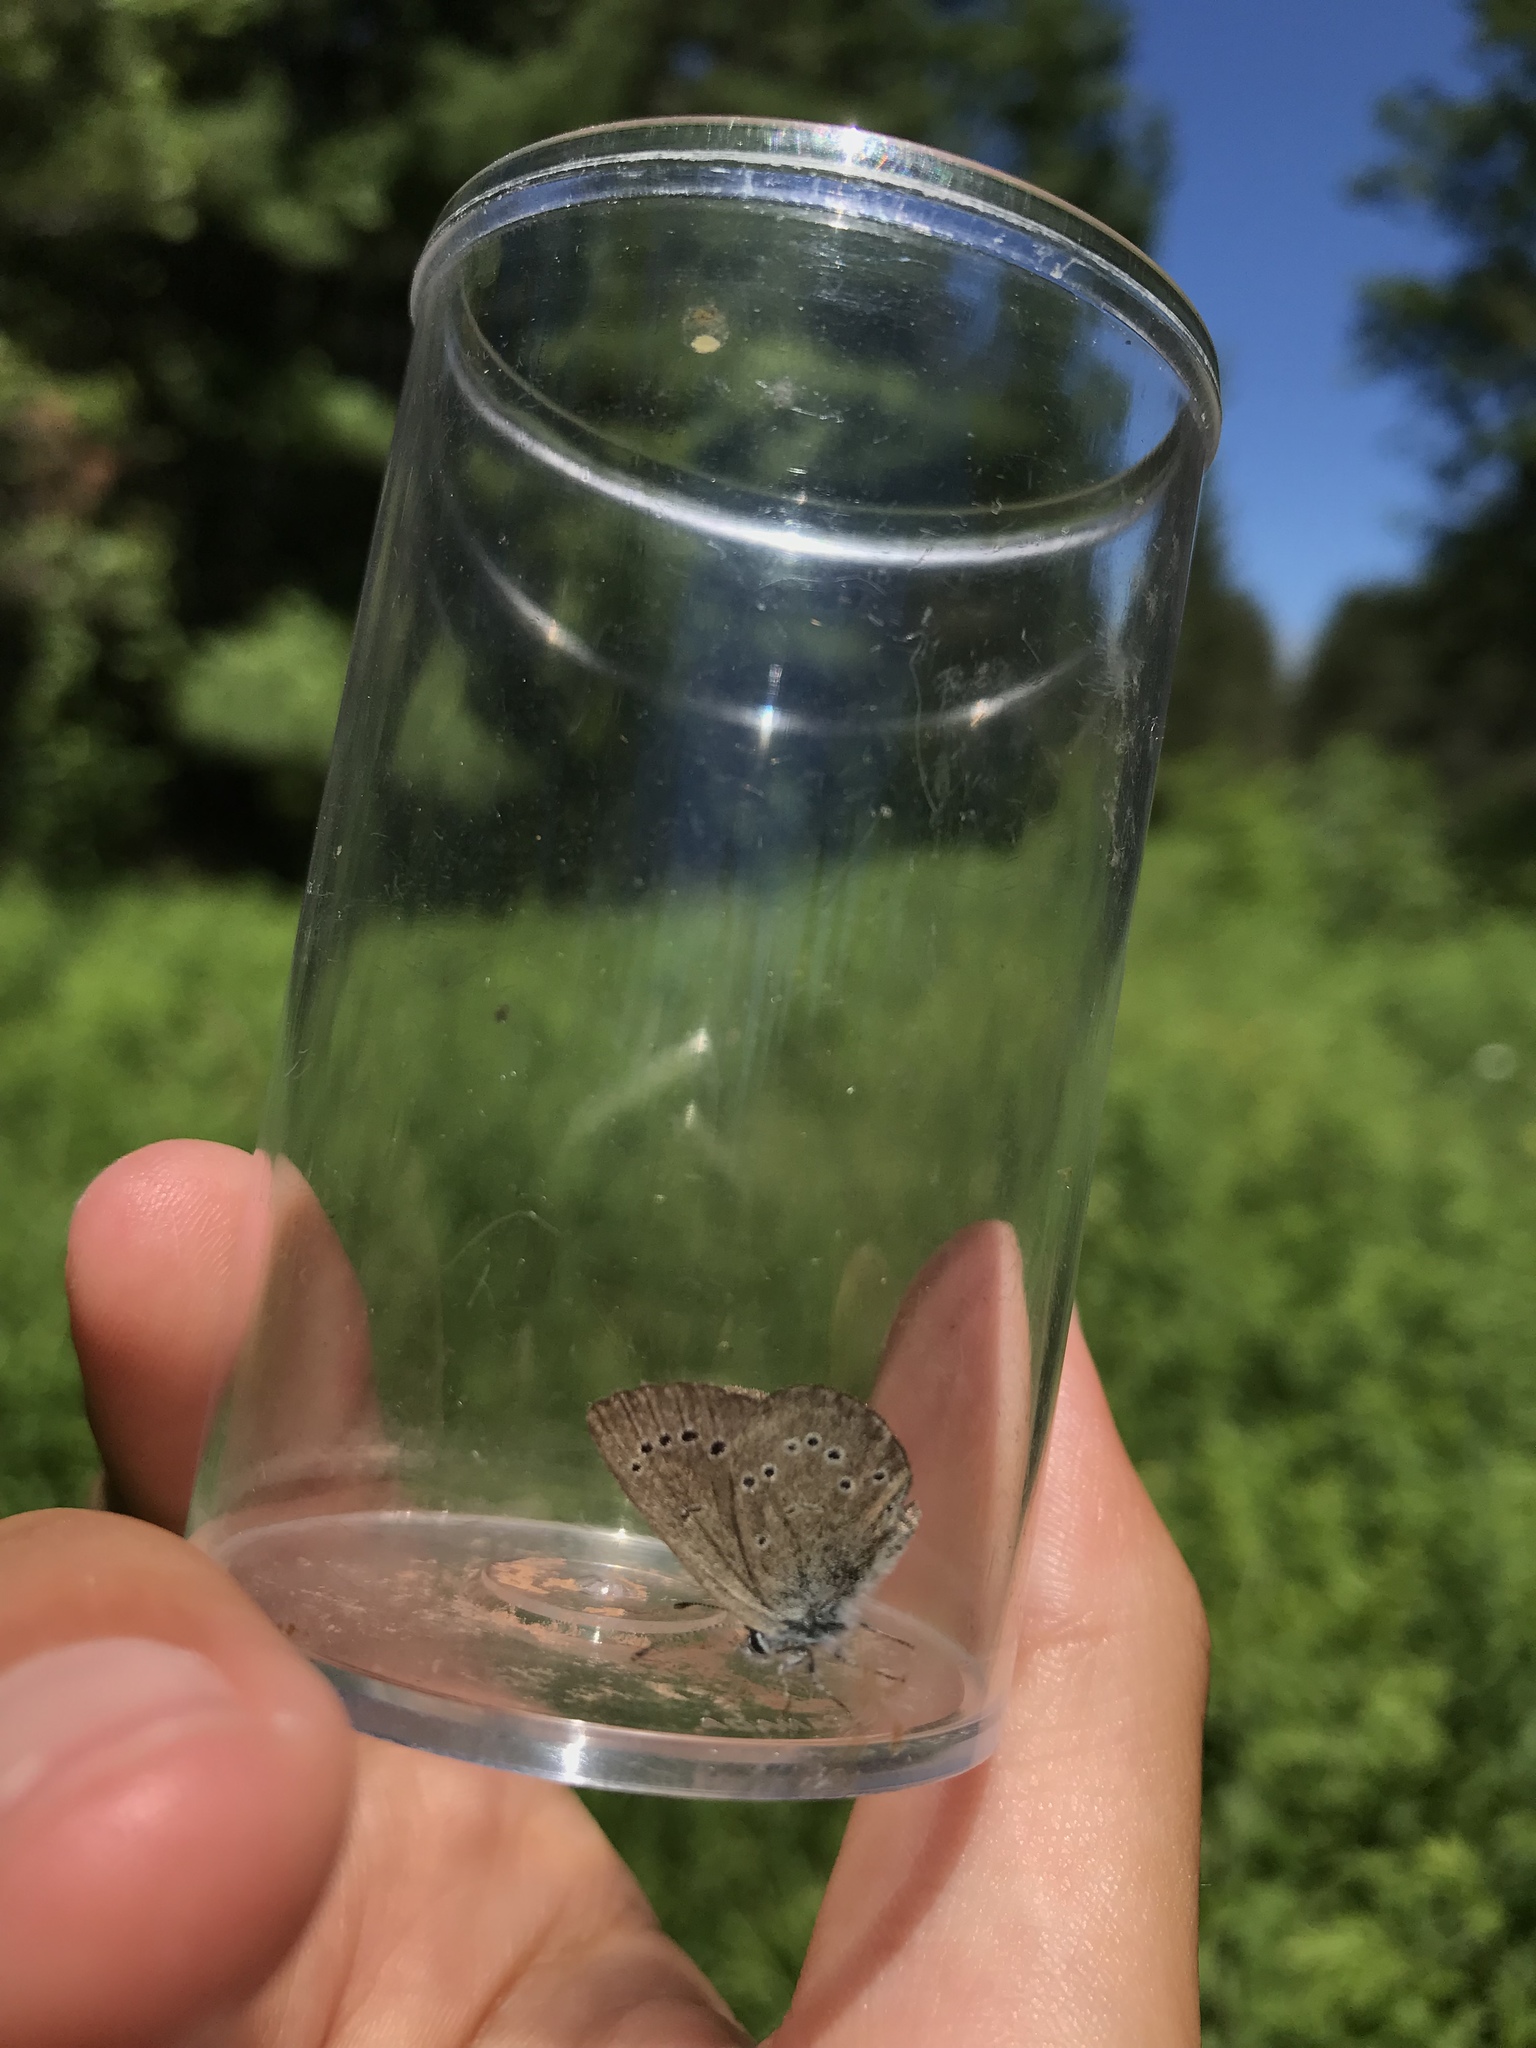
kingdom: Animalia
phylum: Arthropoda
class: Insecta
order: Lepidoptera
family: Lycaenidae
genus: Glaucopsyche
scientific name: Glaucopsyche lygdamus
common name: Silvery blue
